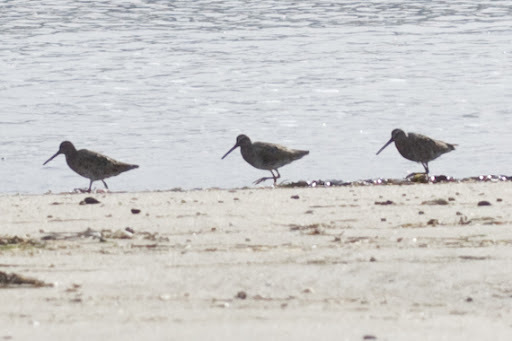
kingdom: Animalia
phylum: Chordata
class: Aves
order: Charadriiformes
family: Scolopacidae
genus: Limnodromus
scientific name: Limnodromus griseus
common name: Short-billed dowitcher
